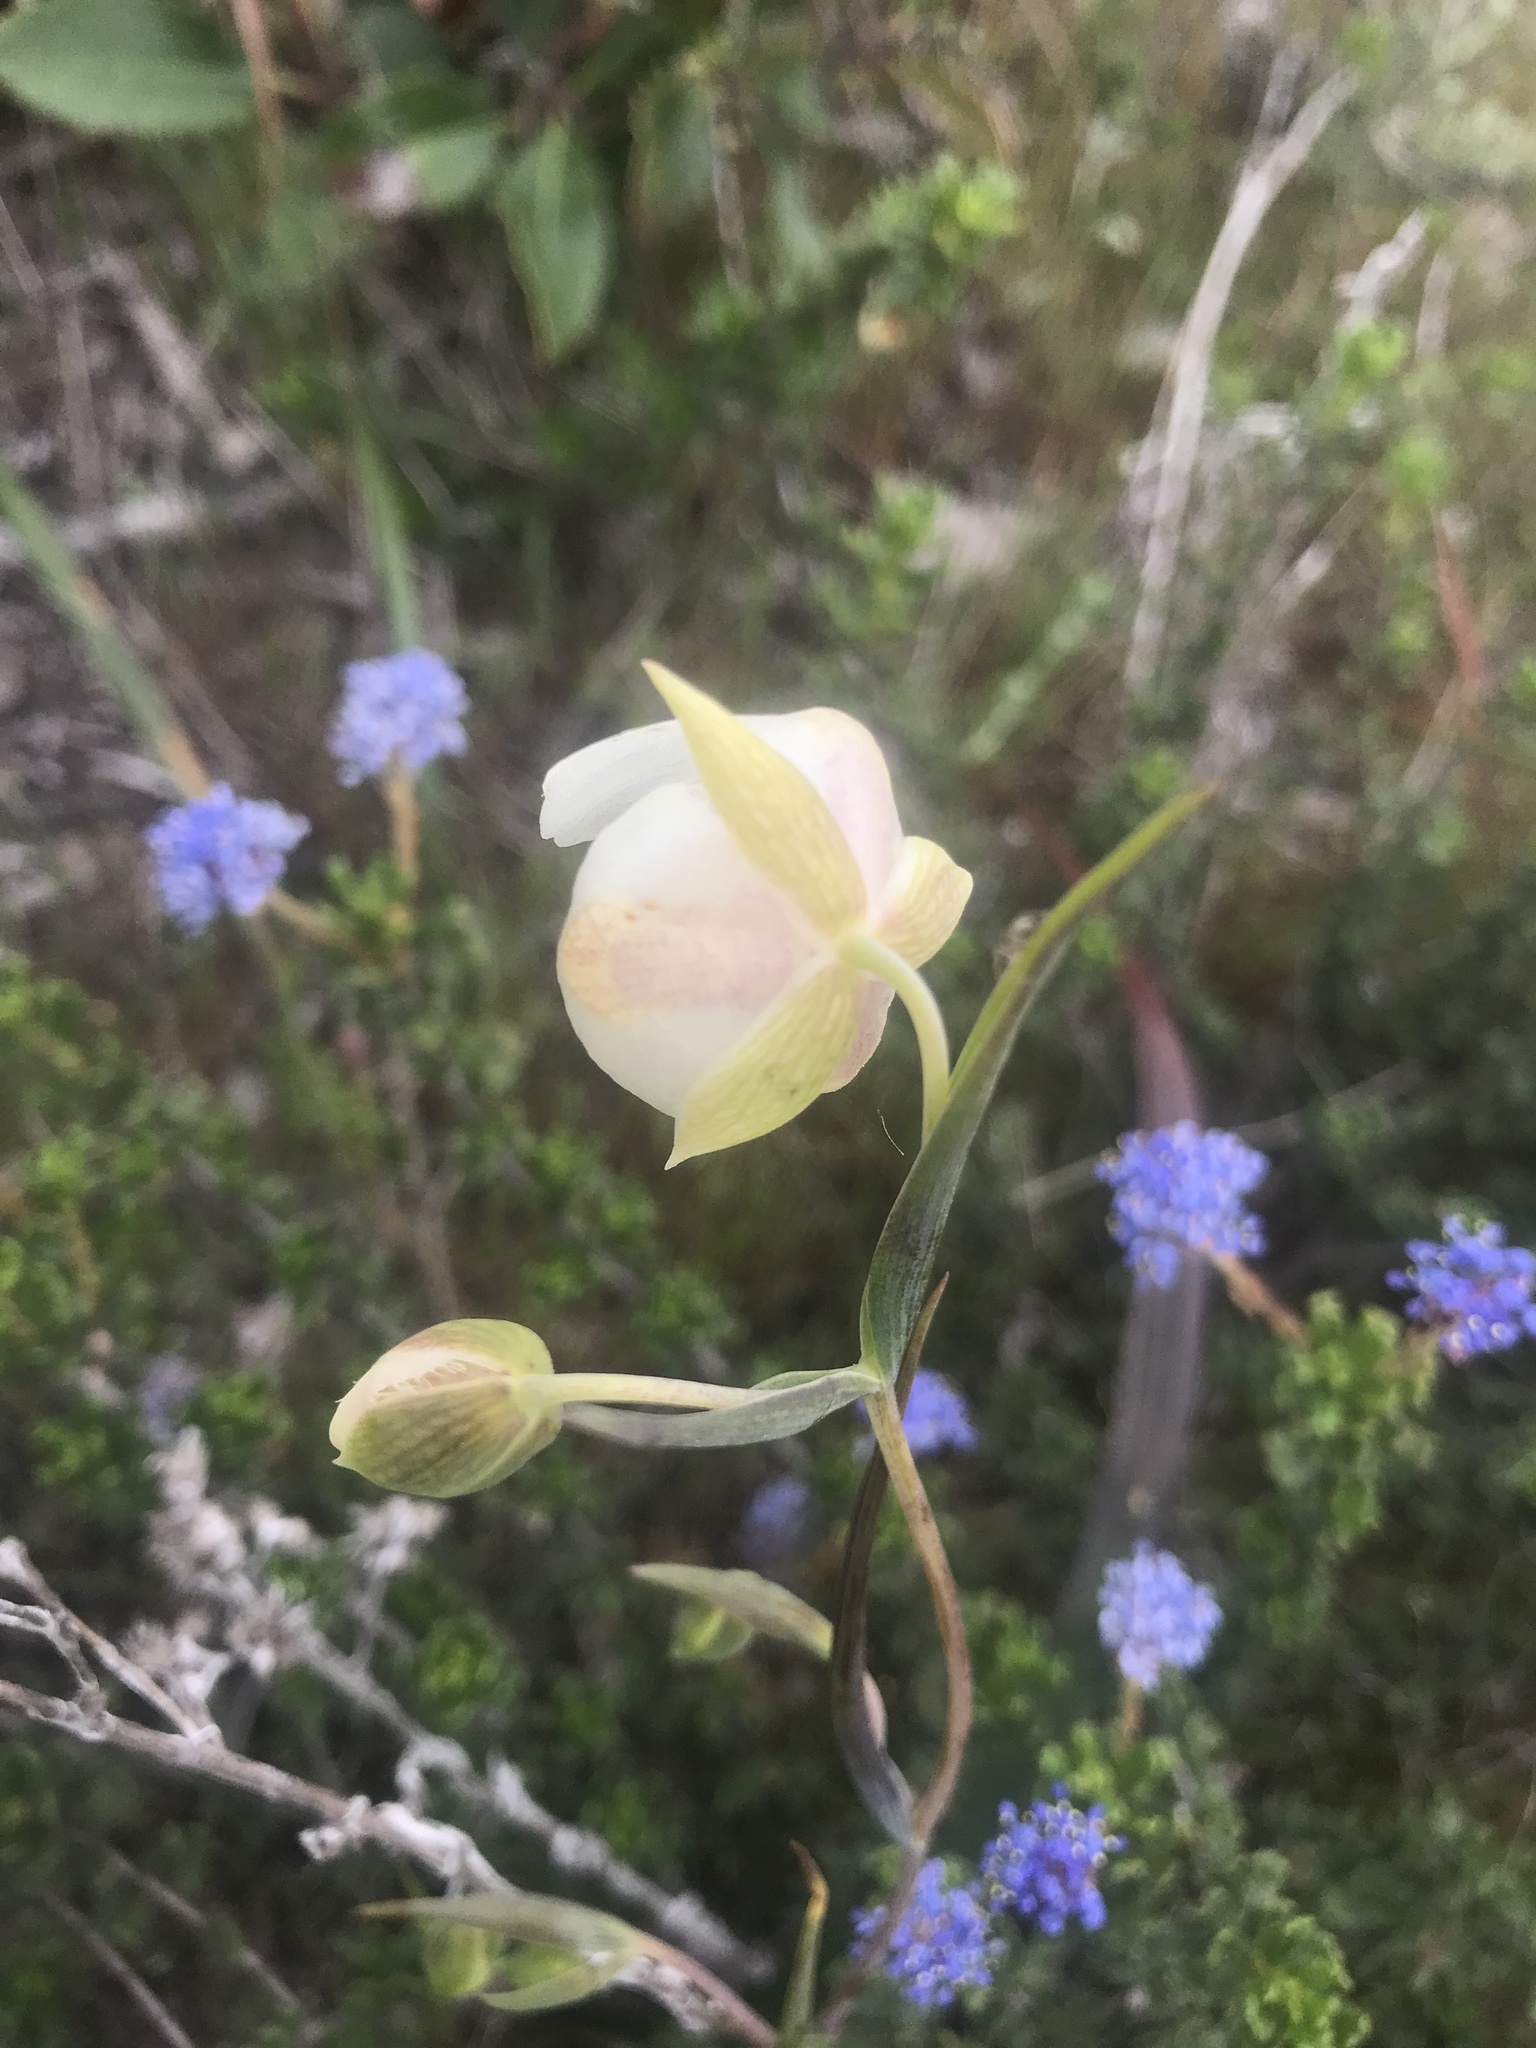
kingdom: Plantae
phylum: Tracheophyta
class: Liliopsida
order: Liliales
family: Liliaceae
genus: Calochortus
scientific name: Calochortus albus
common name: Fairy-lantern
